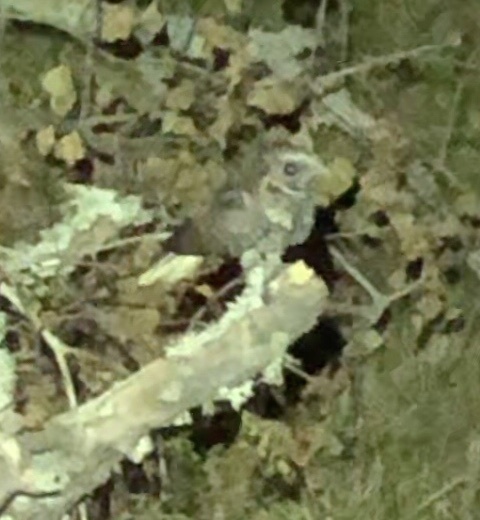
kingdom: Animalia
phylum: Chordata
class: Aves
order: Caprimulgiformes
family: Caprimulgidae
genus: Antrostomus
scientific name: Antrostomus vociferus
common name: Eastern whip-poor-will
